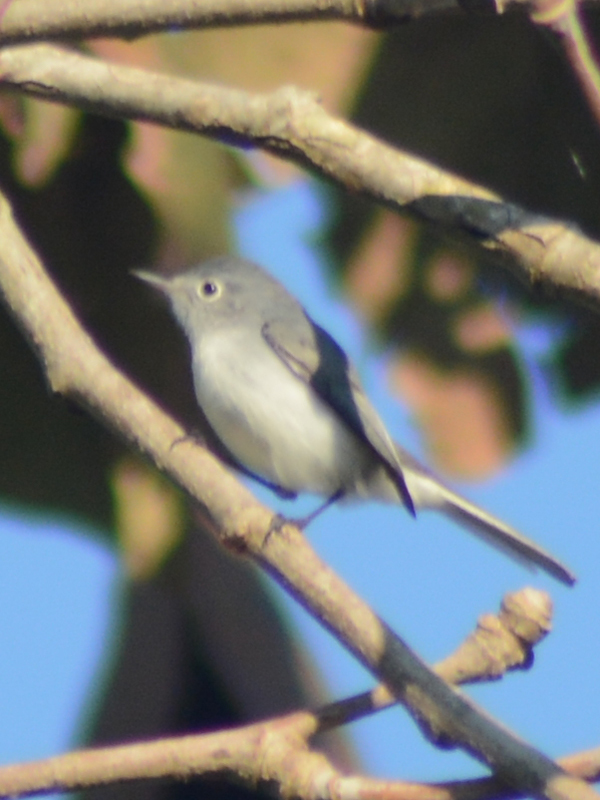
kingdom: Animalia
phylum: Chordata
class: Aves
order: Passeriformes
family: Polioptilidae
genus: Polioptila
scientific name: Polioptila caerulea
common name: Blue-gray gnatcatcher
